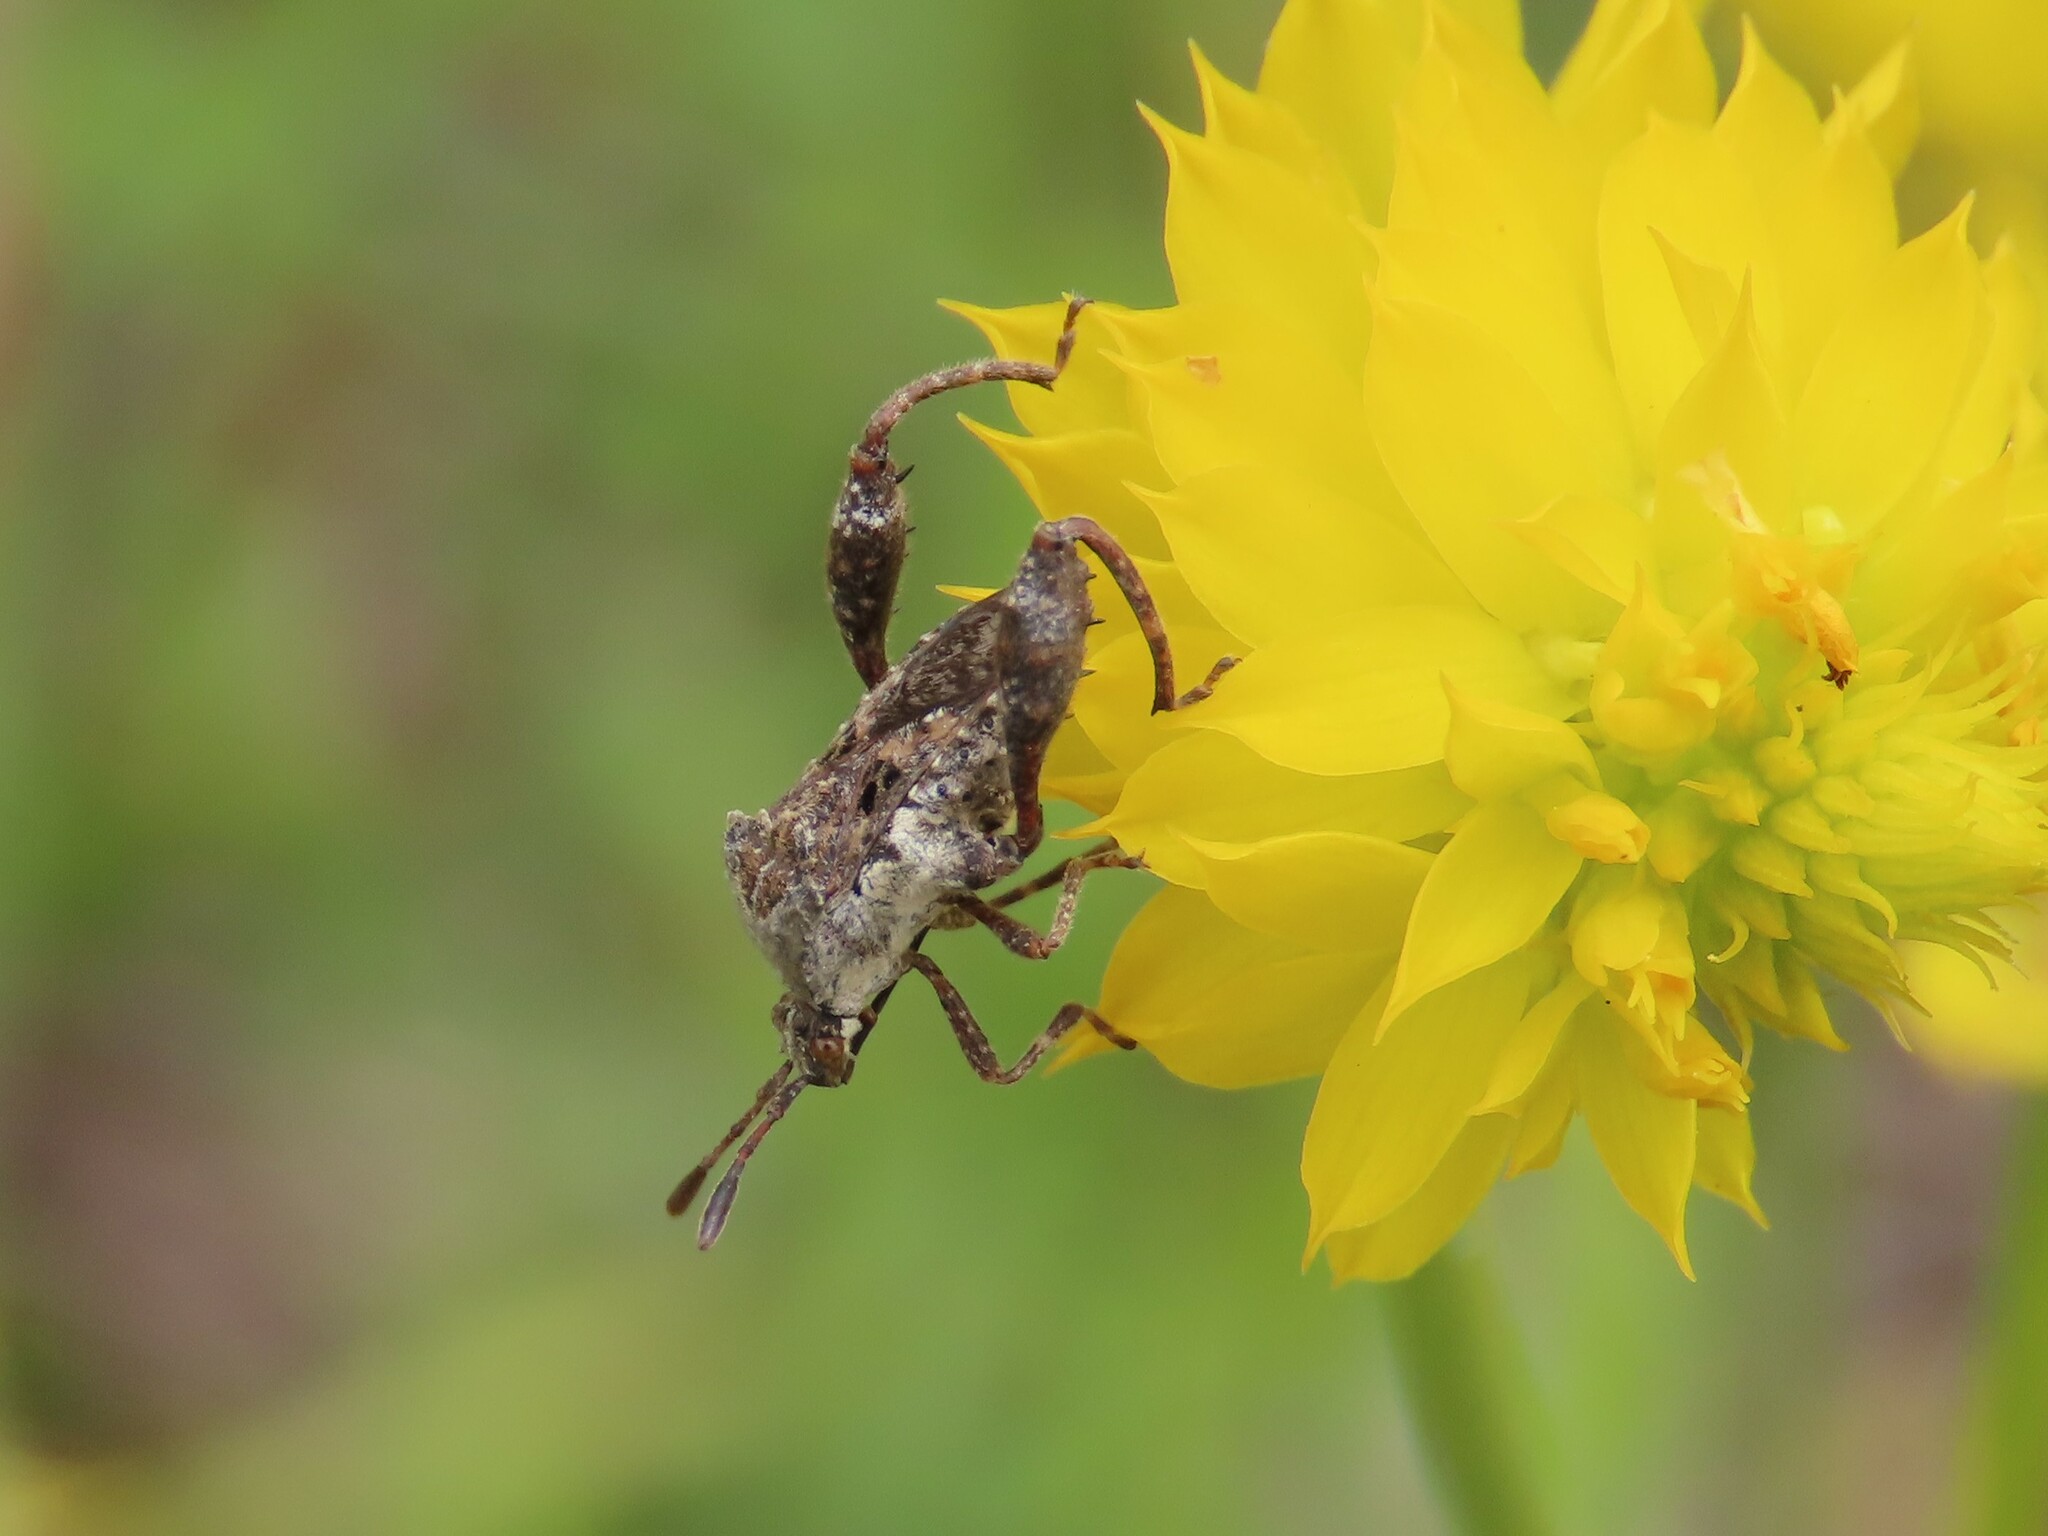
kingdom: Animalia
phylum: Arthropoda
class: Insecta
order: Hemiptera
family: Coreidae
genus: Merocoris
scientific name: Merocoris typhaeus
